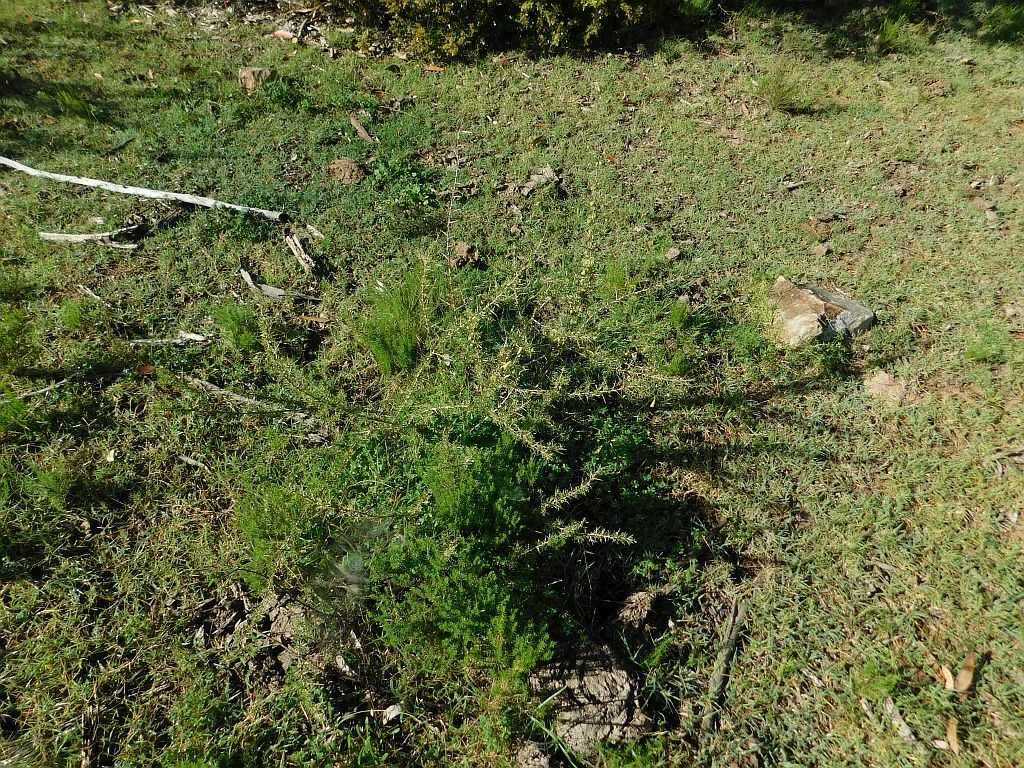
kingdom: Plantae
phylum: Tracheophyta
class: Magnoliopsida
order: Solanales
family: Solanaceae
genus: Lycium
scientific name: Lycium afrum
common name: Kaffir boxthorn
